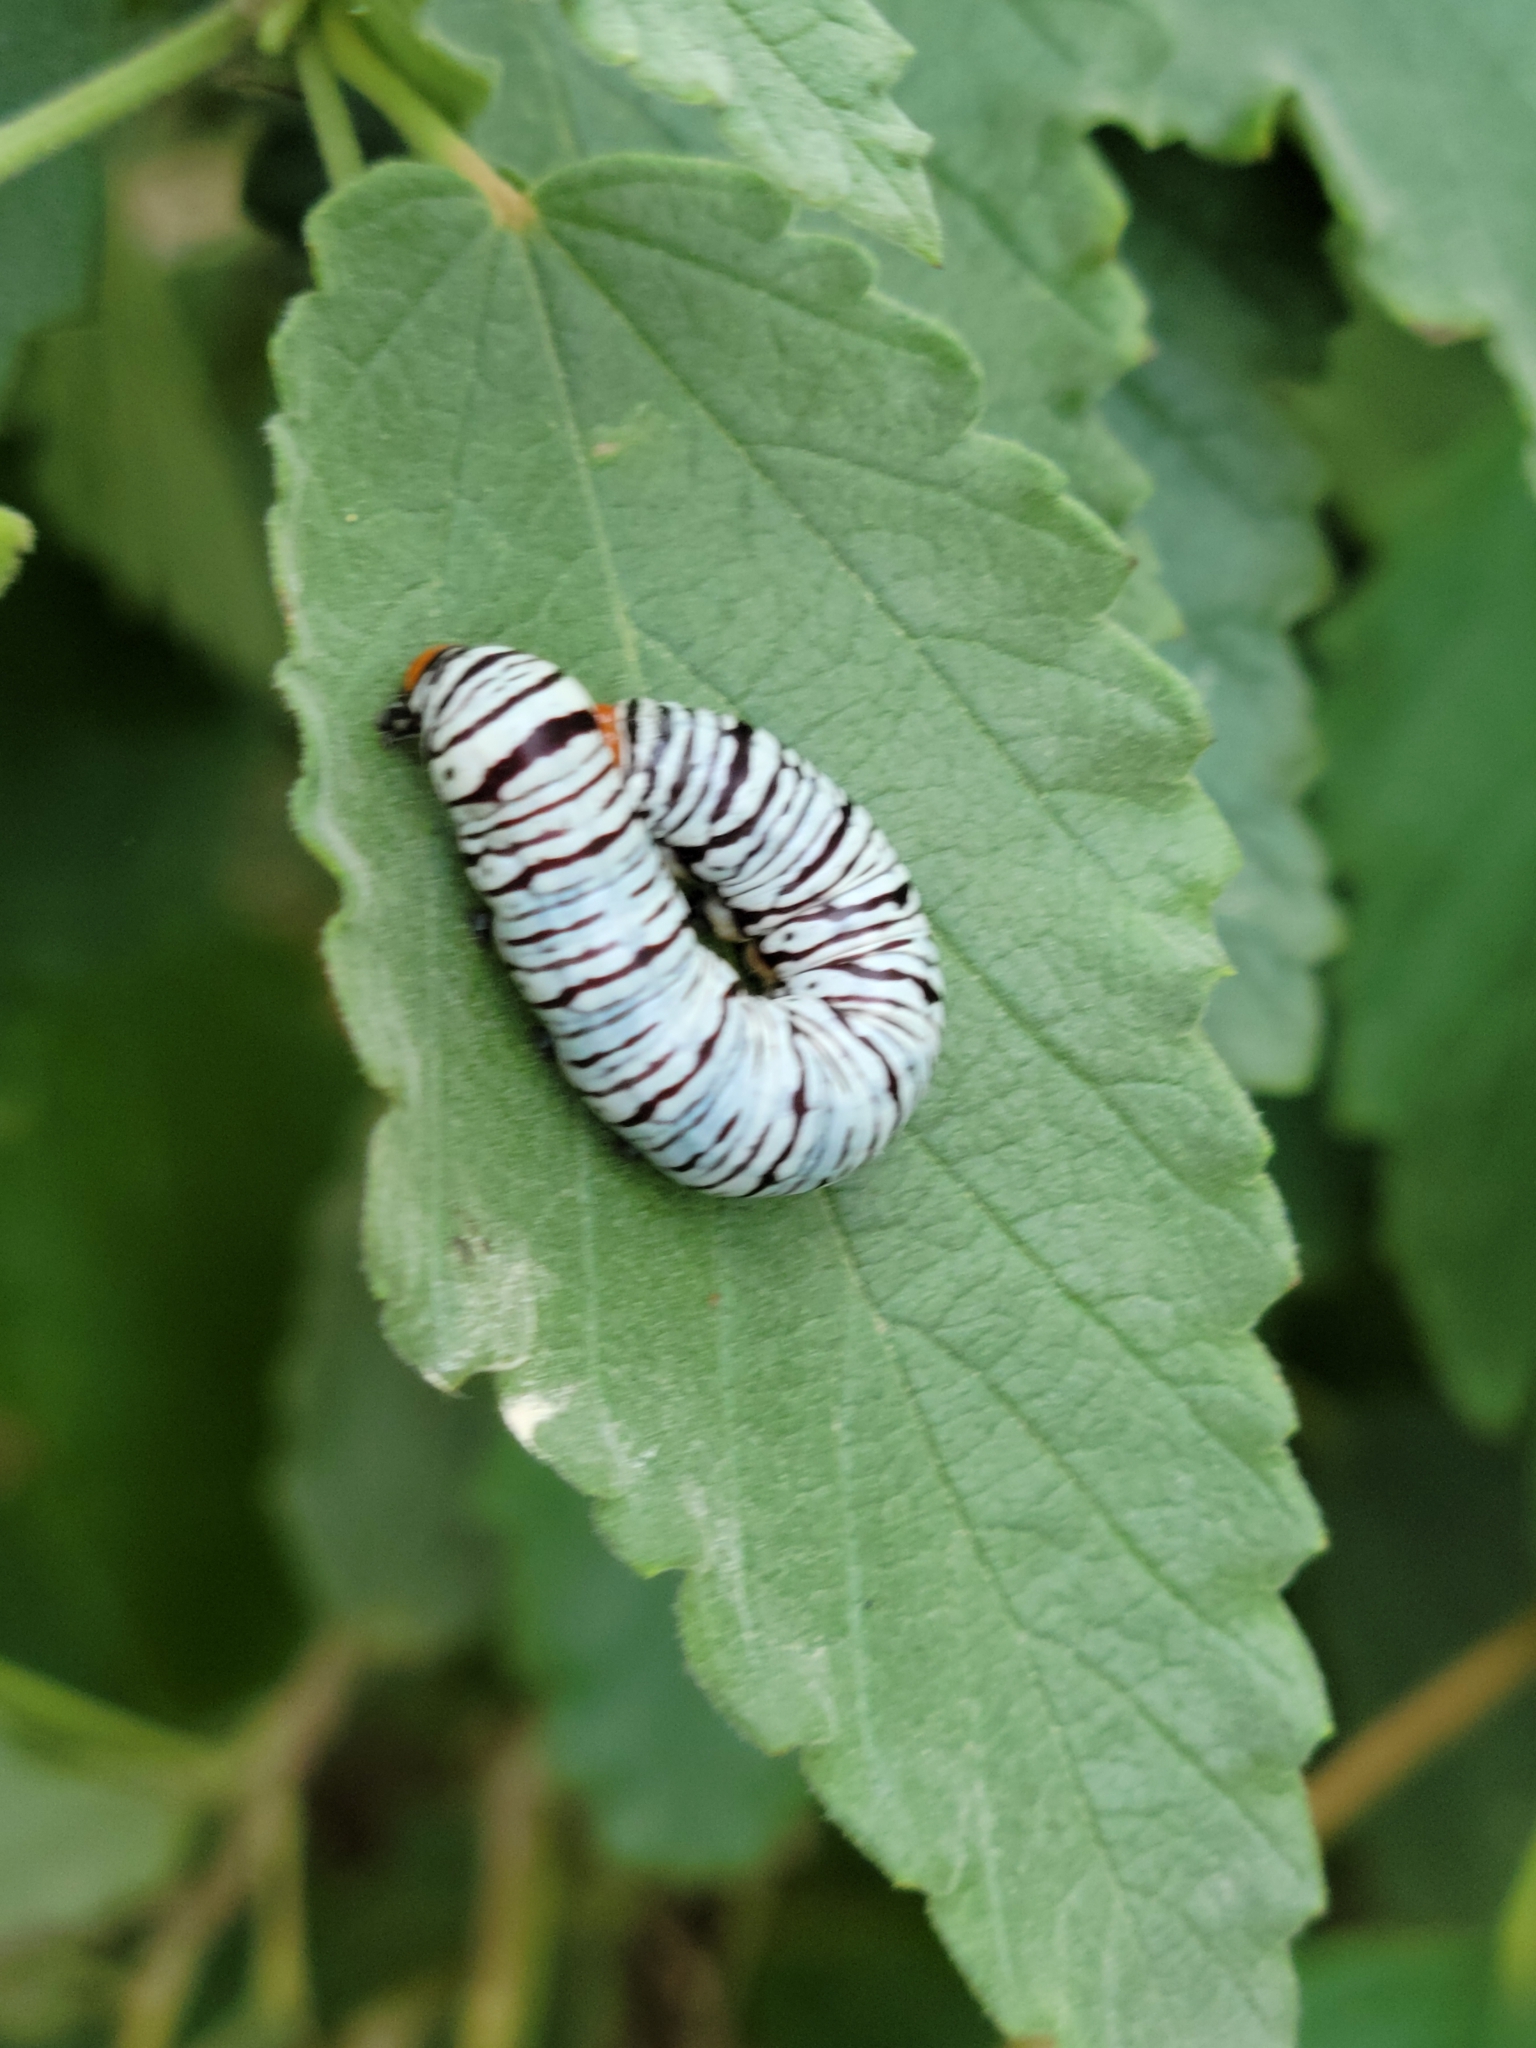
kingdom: Animalia
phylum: Arthropoda
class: Insecta
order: Lepidoptera
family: Erebidae
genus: Diphthera
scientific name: Diphthera festiva
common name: Hieroglyphic moth
